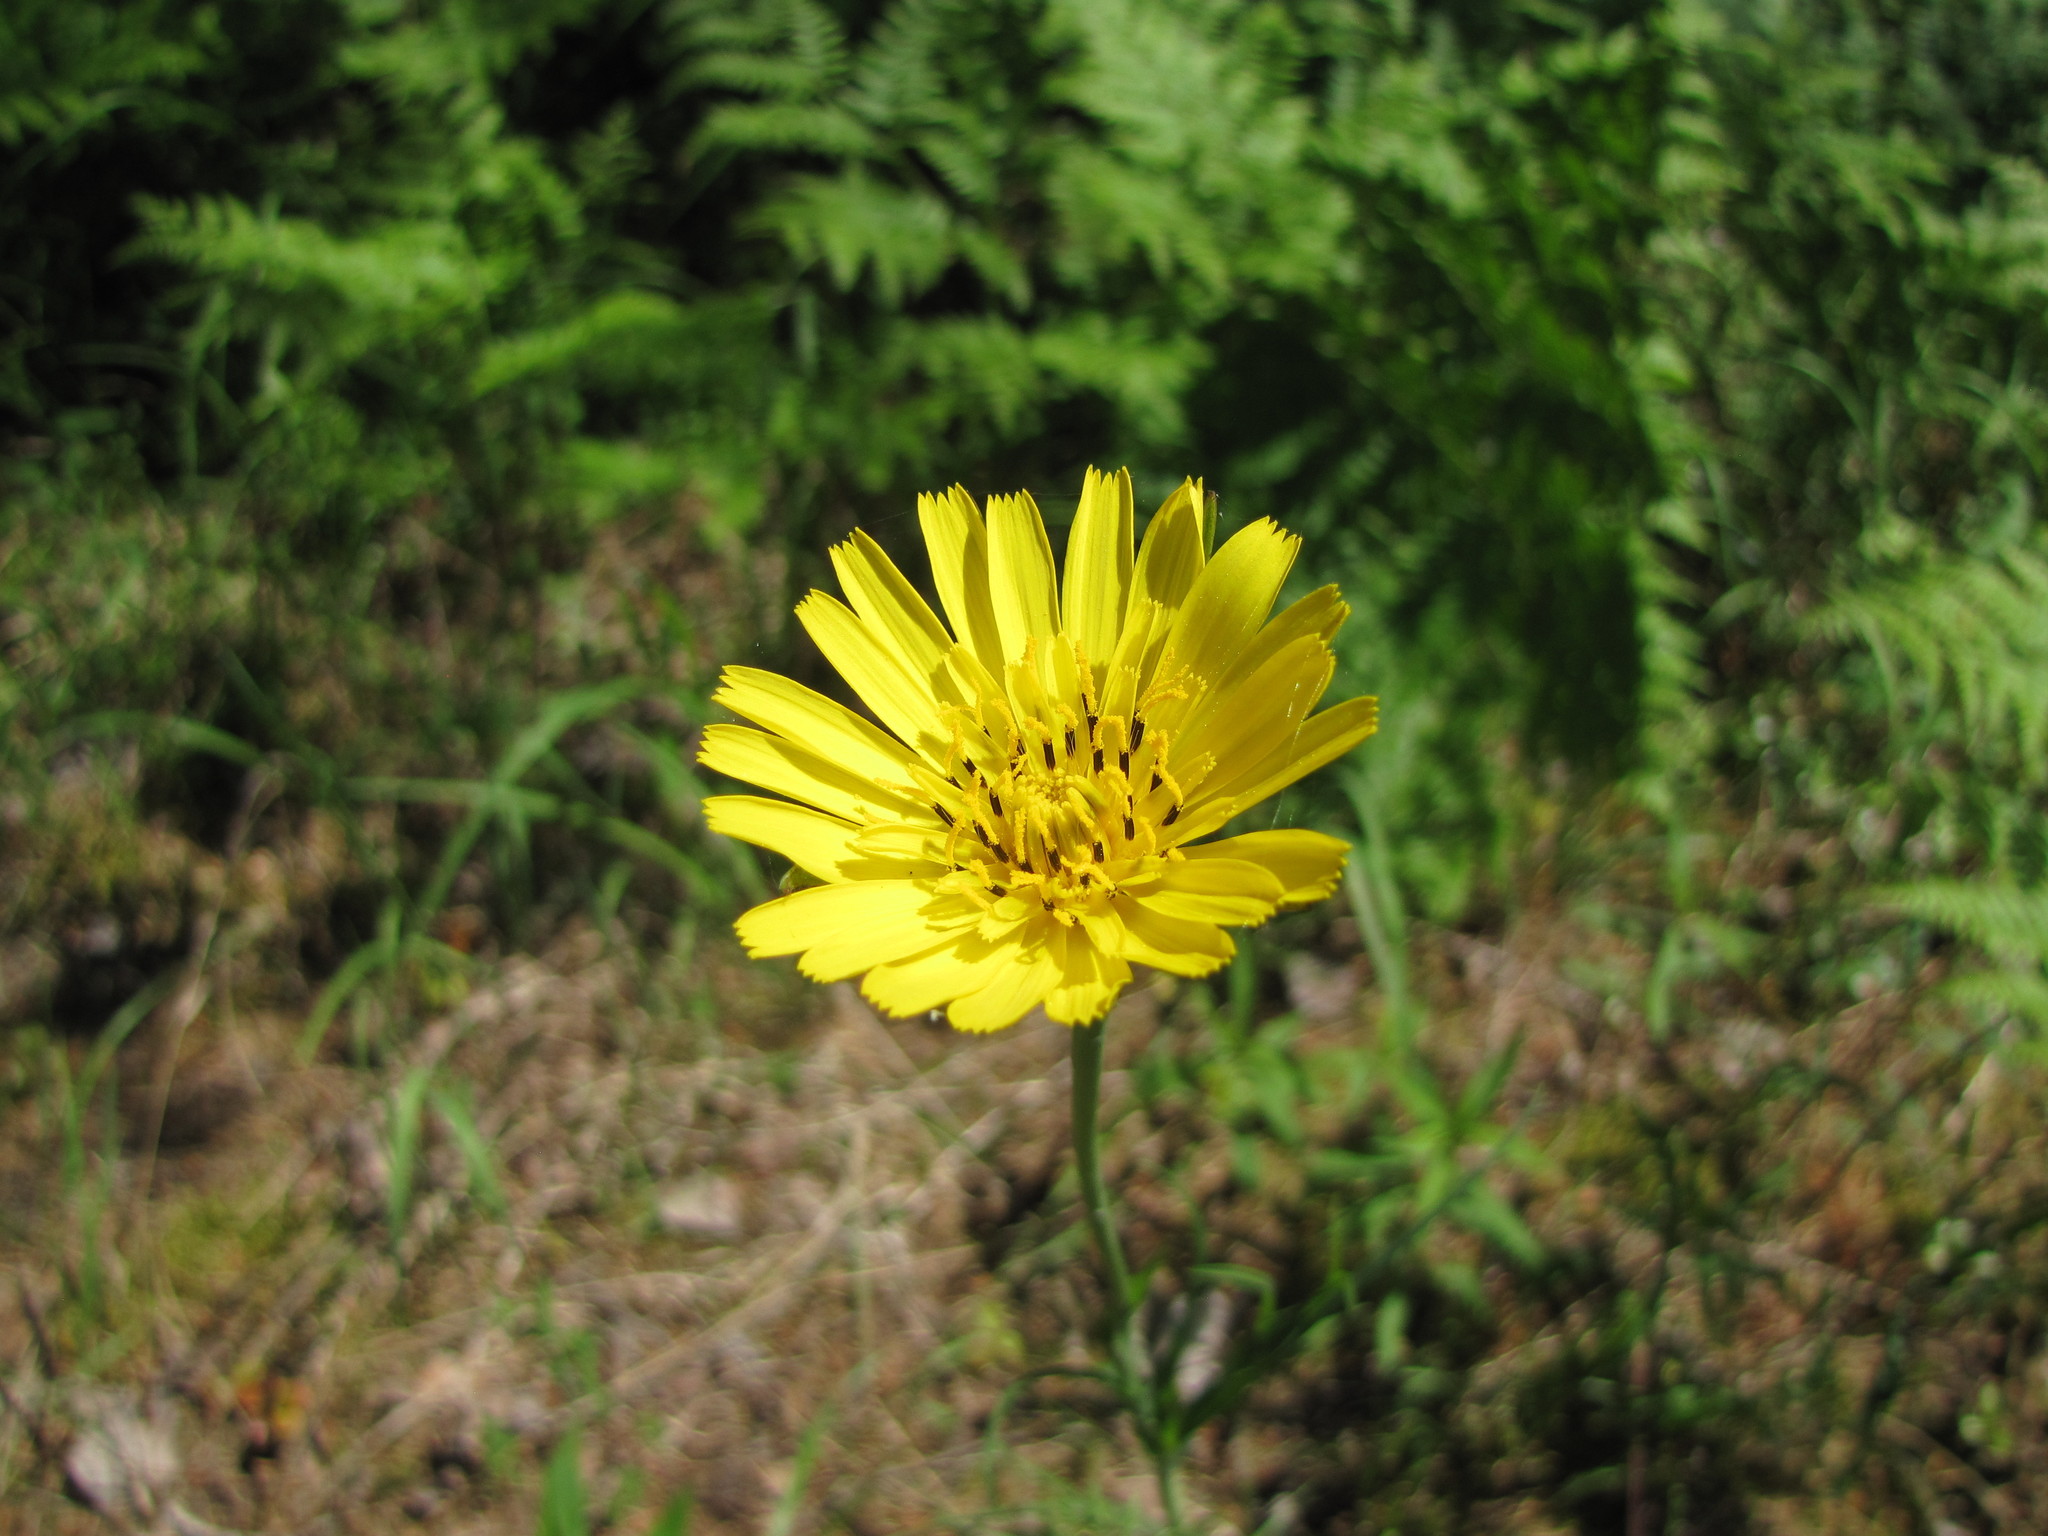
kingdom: Plantae
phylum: Tracheophyta
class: Magnoliopsida
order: Asterales
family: Asteraceae
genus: Tragopogon
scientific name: Tragopogon pratensis
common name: Goat's-beard
